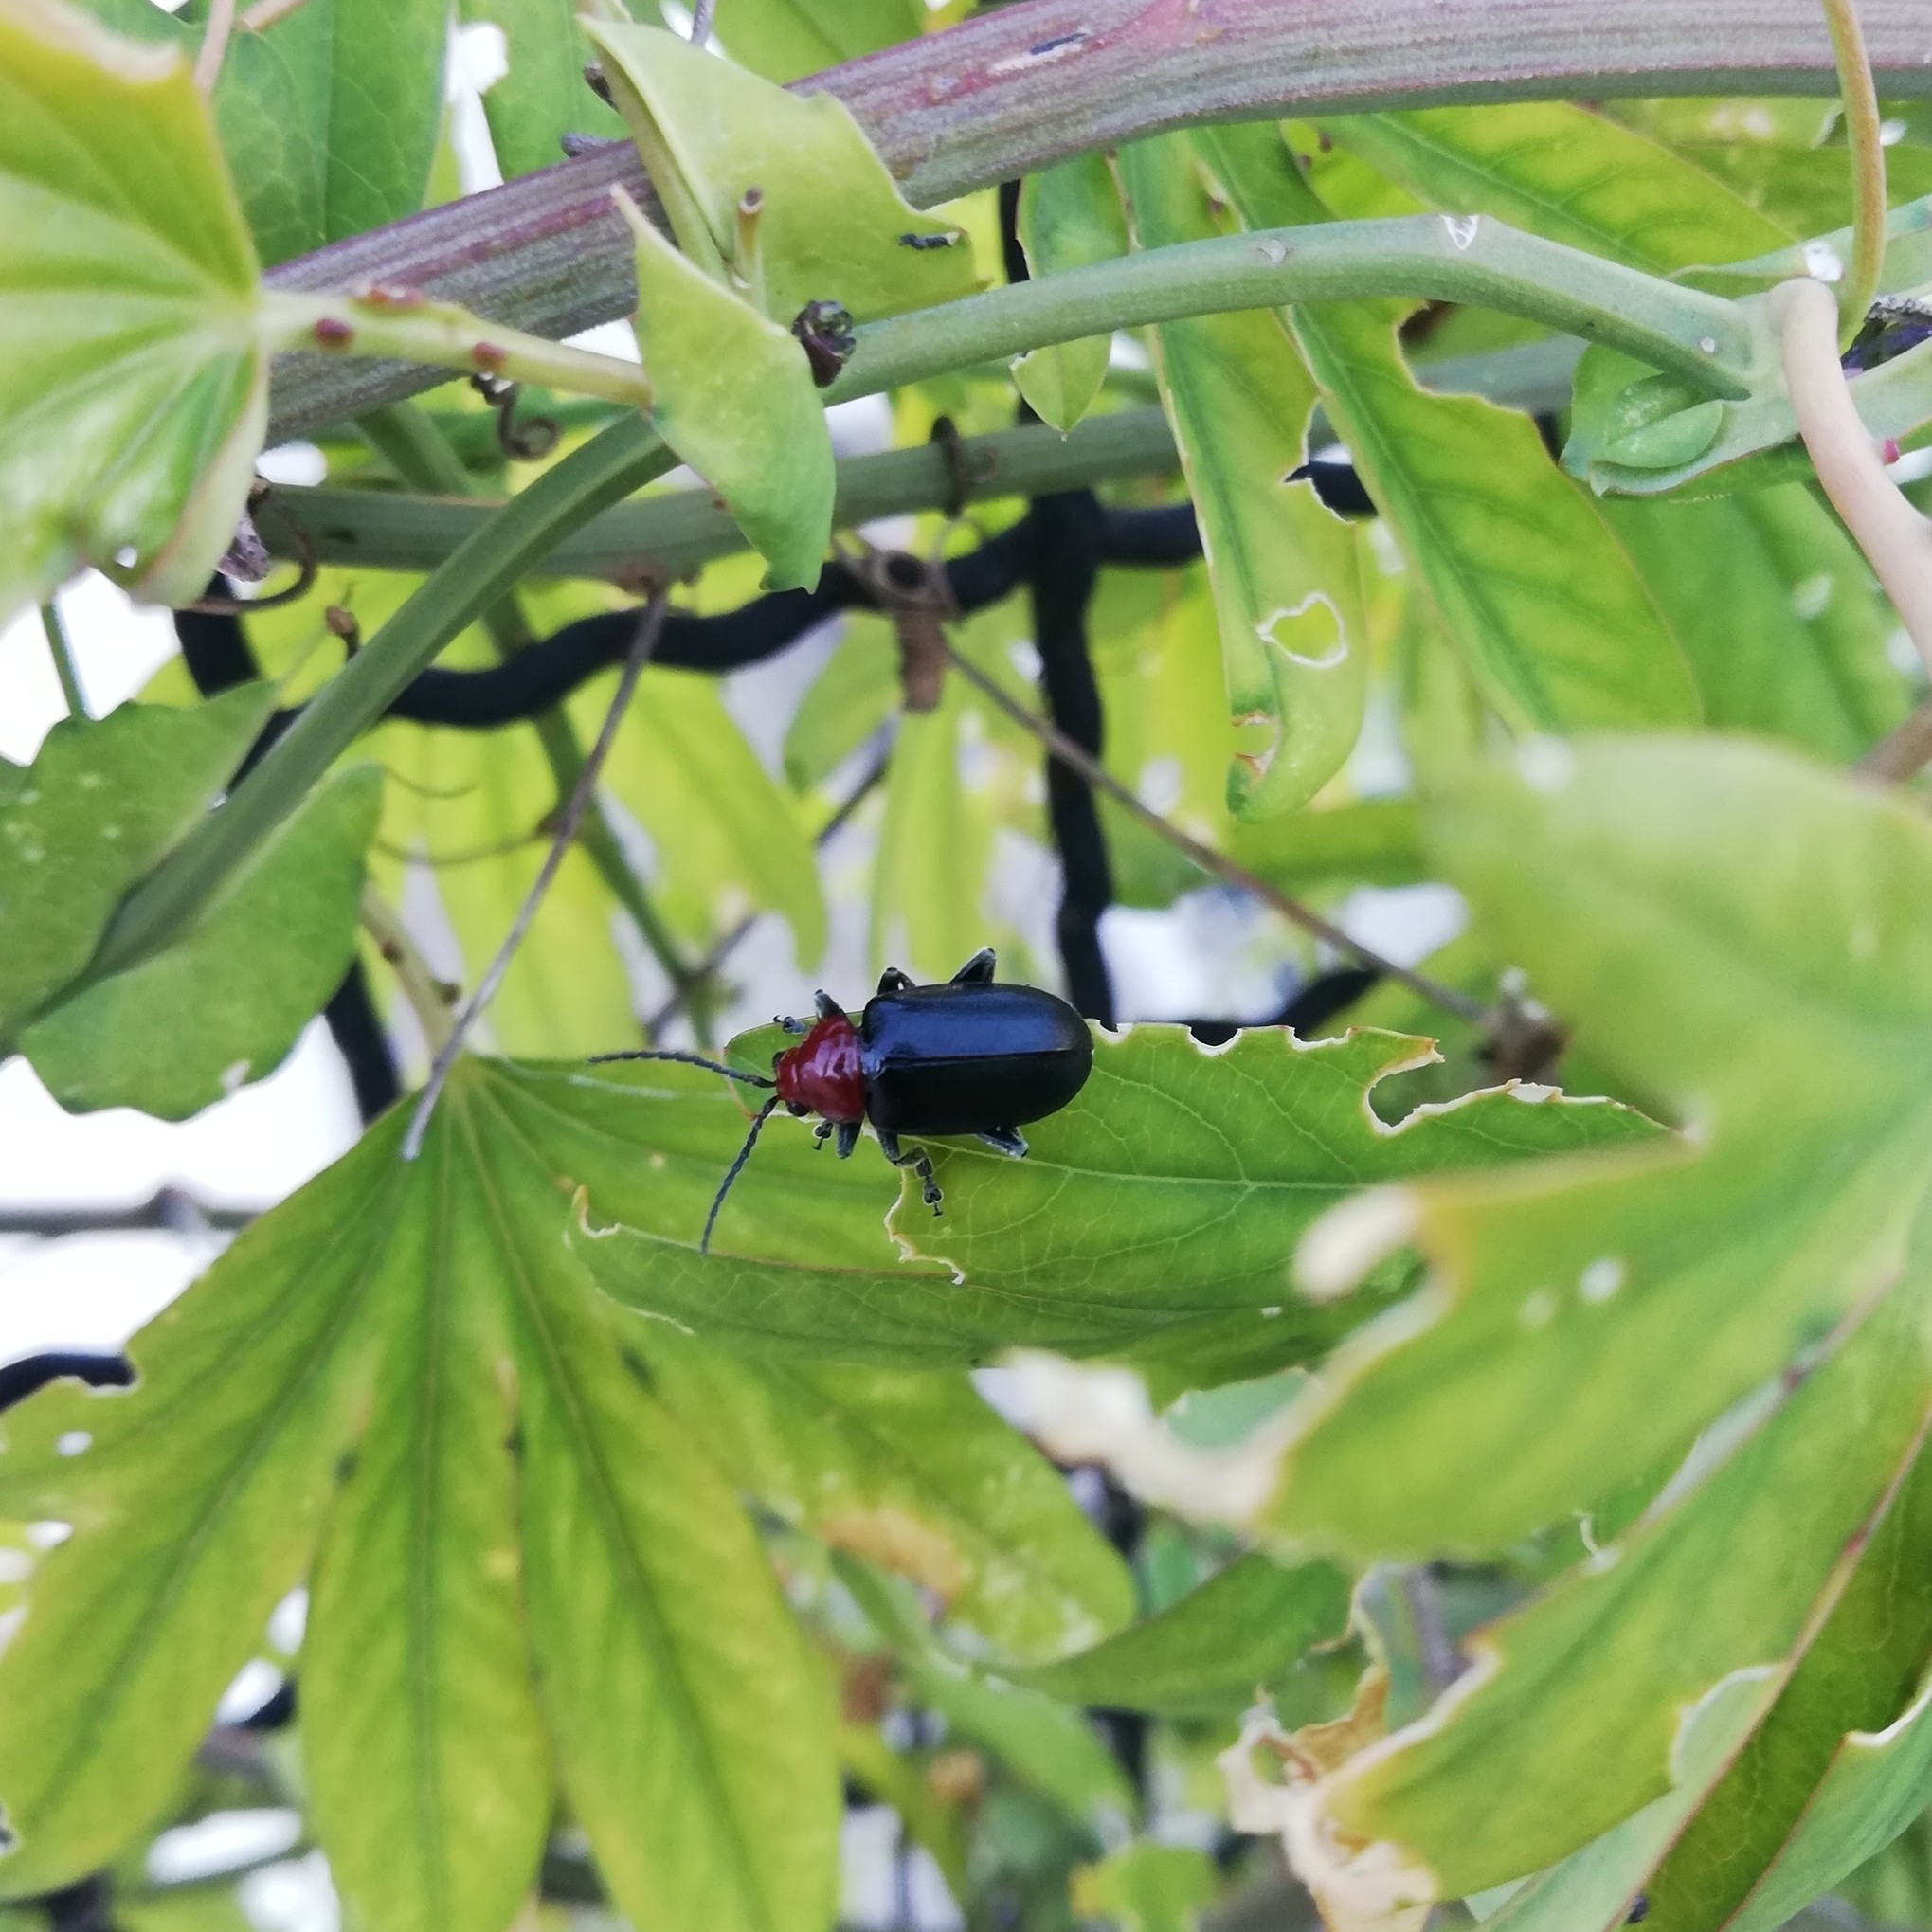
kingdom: Animalia
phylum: Arthropoda
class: Insecta
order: Coleoptera
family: Chrysomelidae
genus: Cacoscelis
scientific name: Cacoscelis
